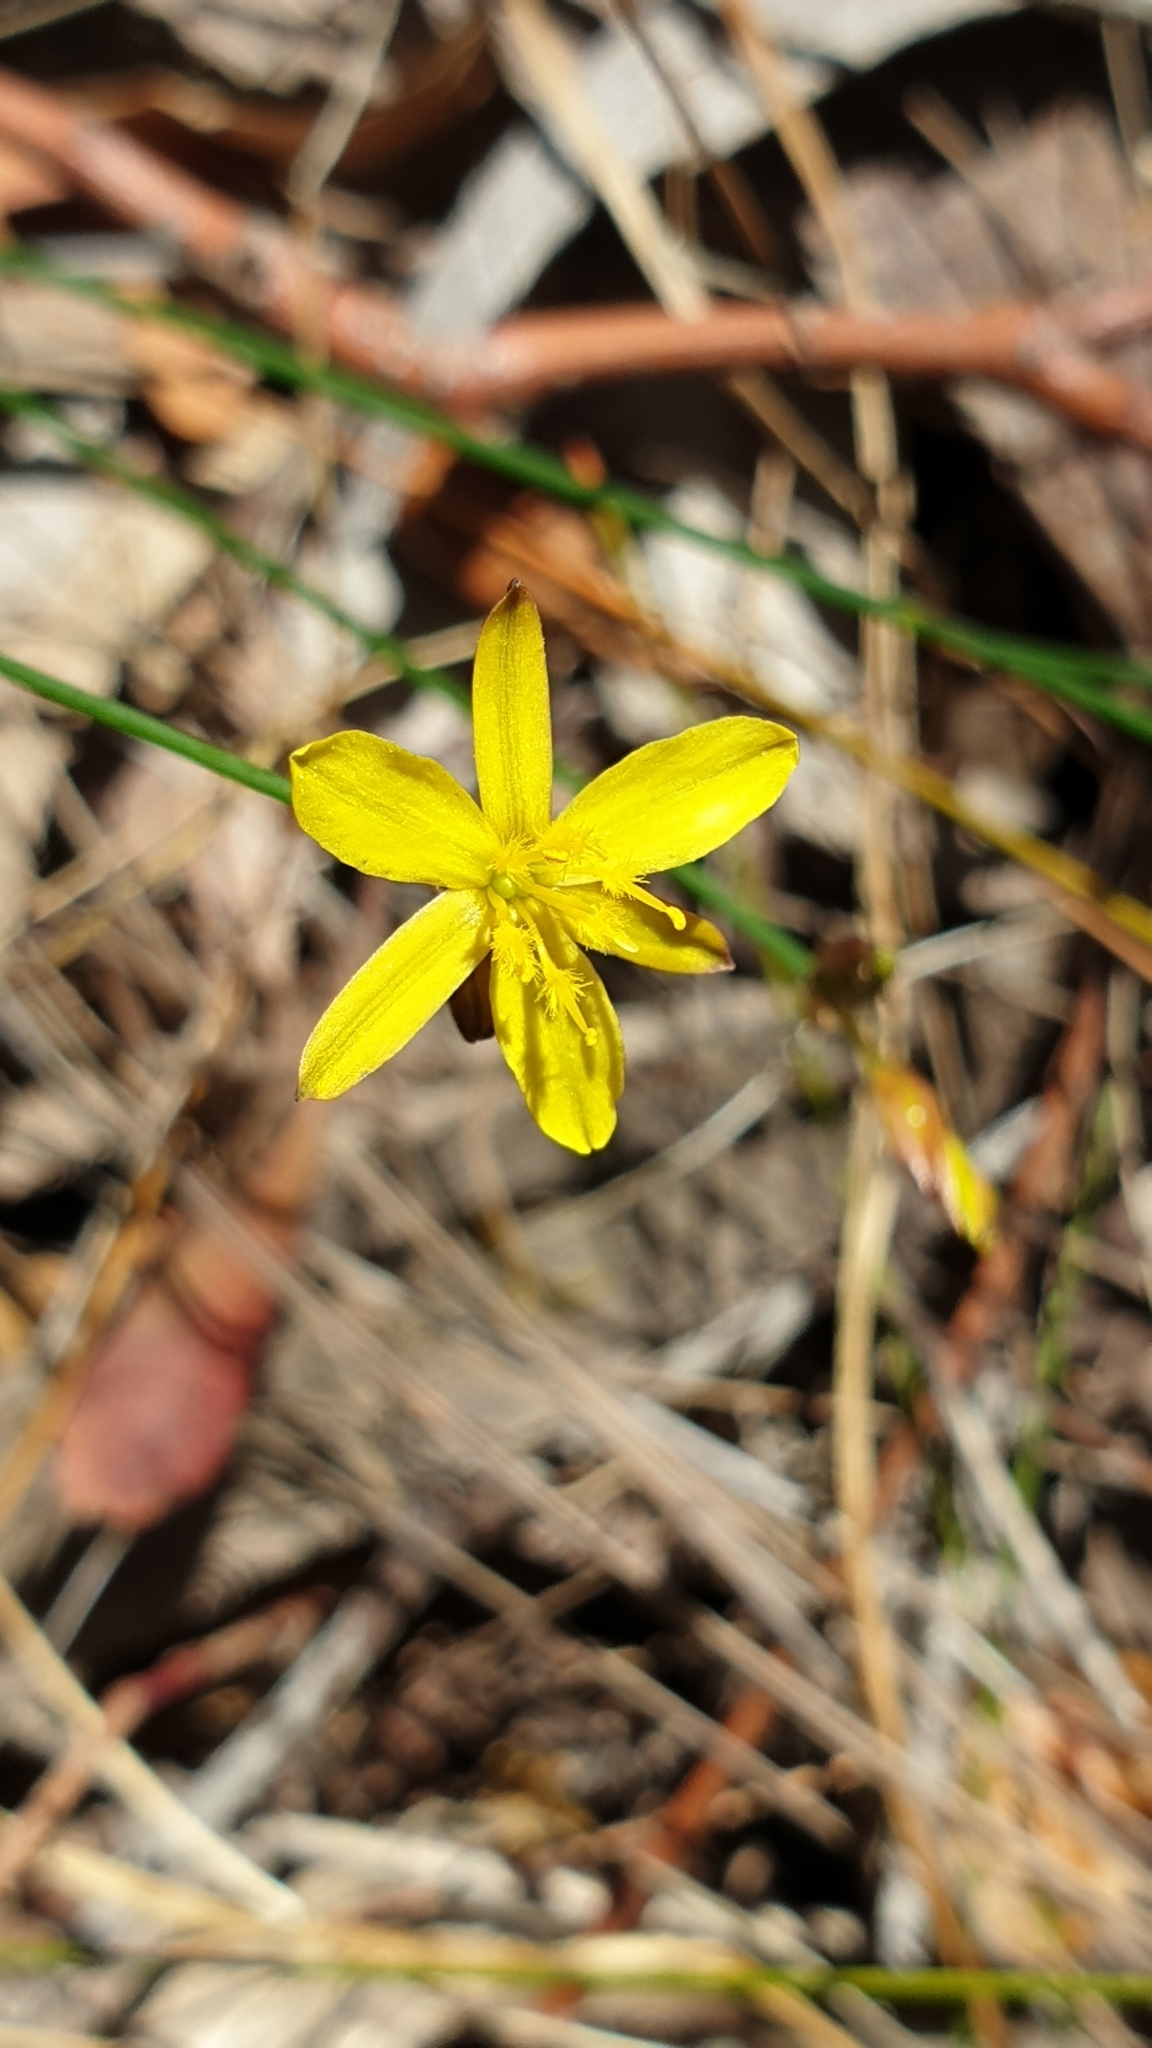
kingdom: Plantae
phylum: Tracheophyta
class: Liliopsida
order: Asparagales
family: Asphodelaceae
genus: Tricoryne
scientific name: Tricoryne elatior
